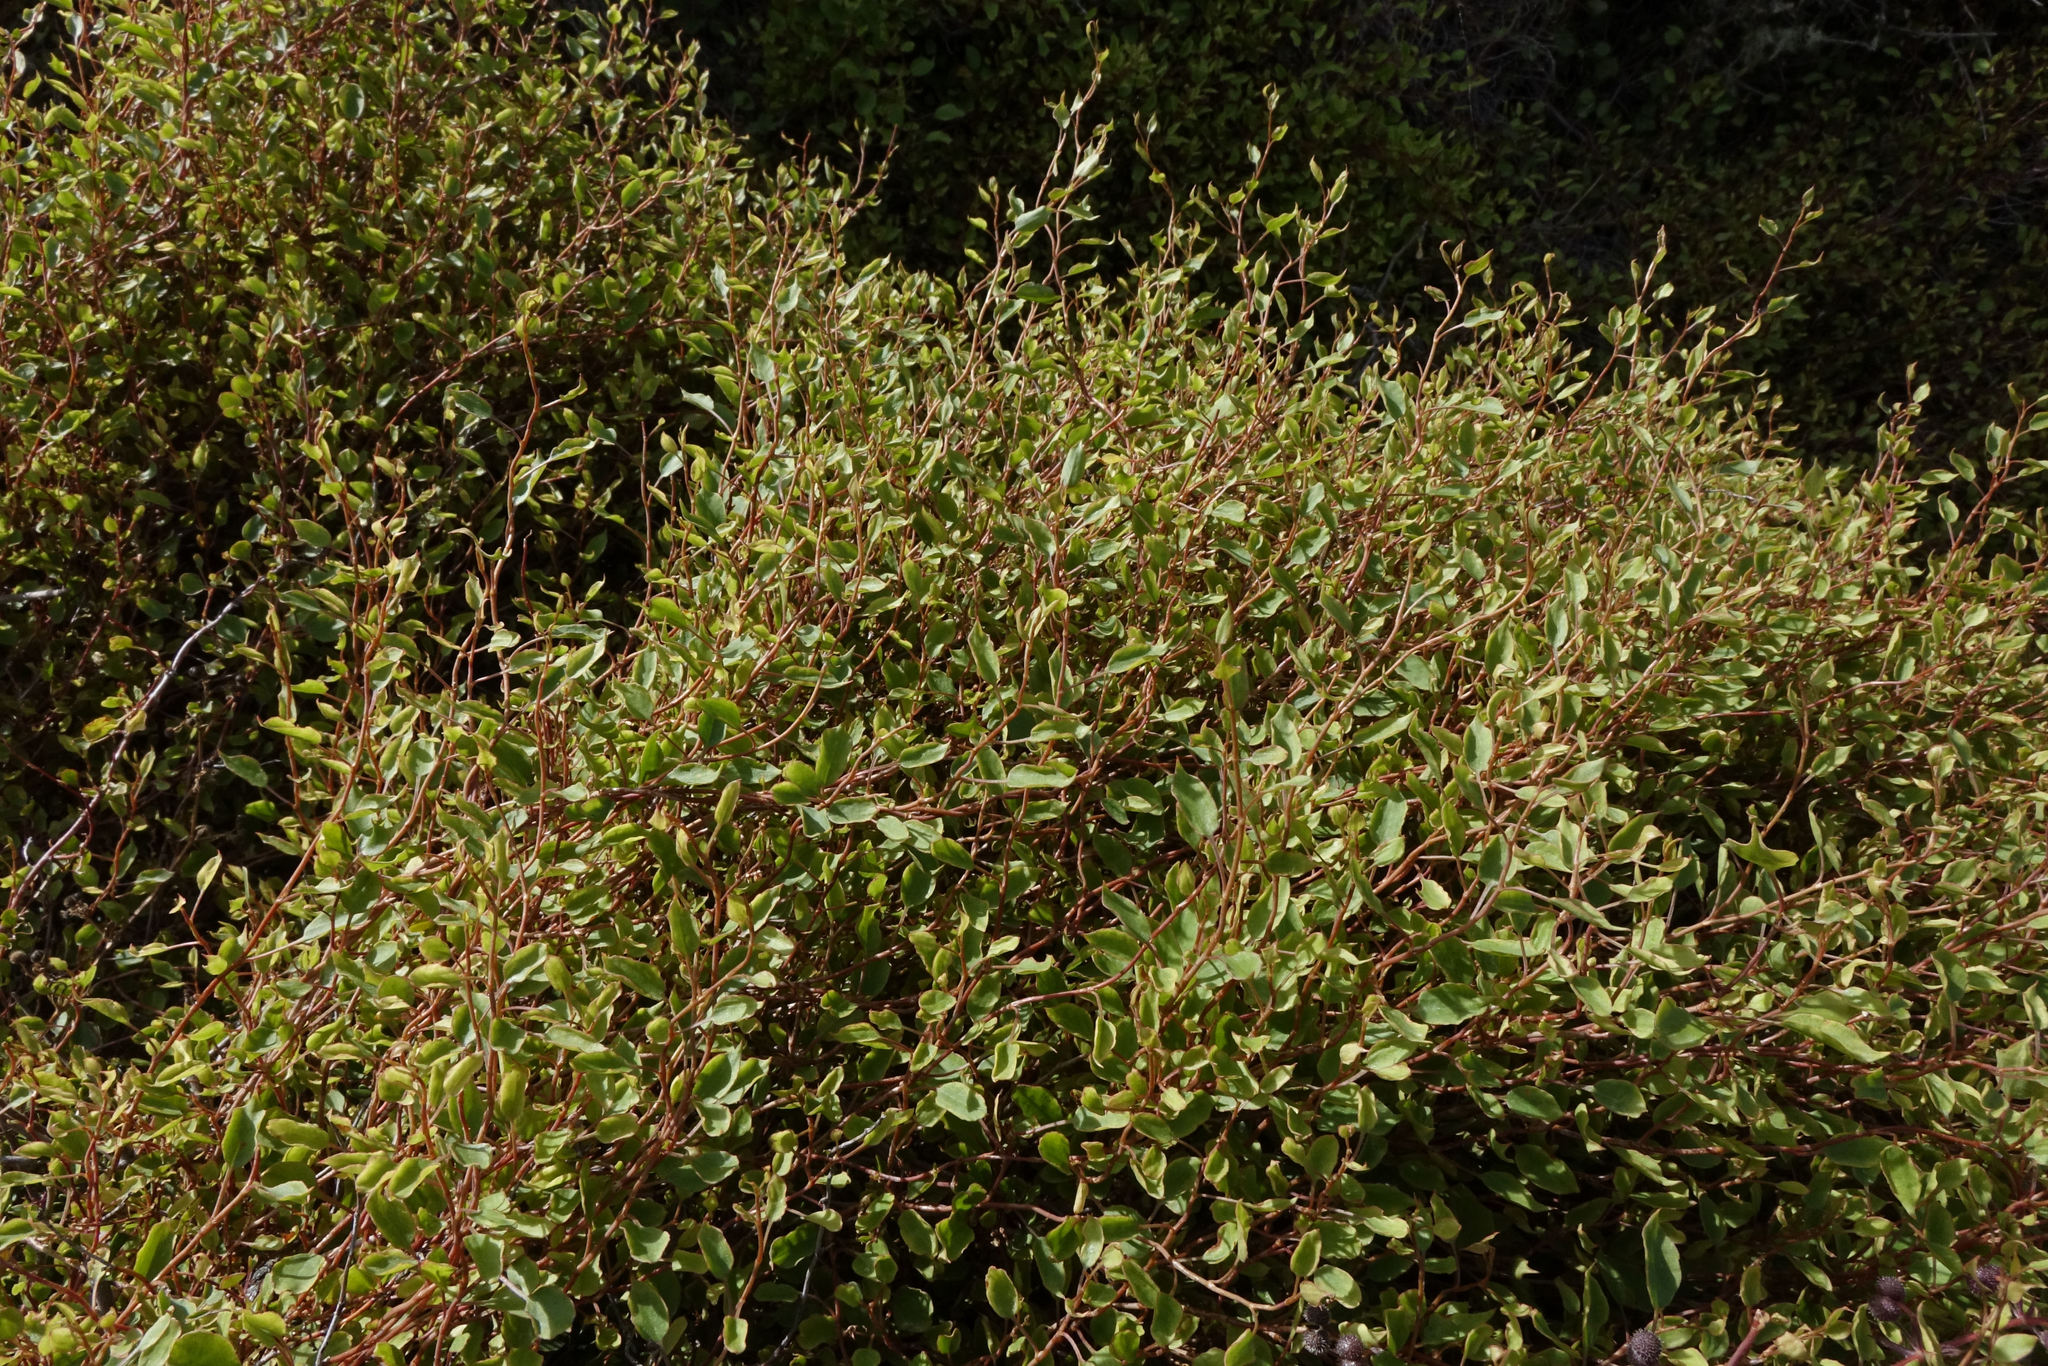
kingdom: Plantae
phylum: Tracheophyta
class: Magnoliopsida
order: Caryophyllales
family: Polygonaceae
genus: Muehlenbeckia
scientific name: Muehlenbeckia
